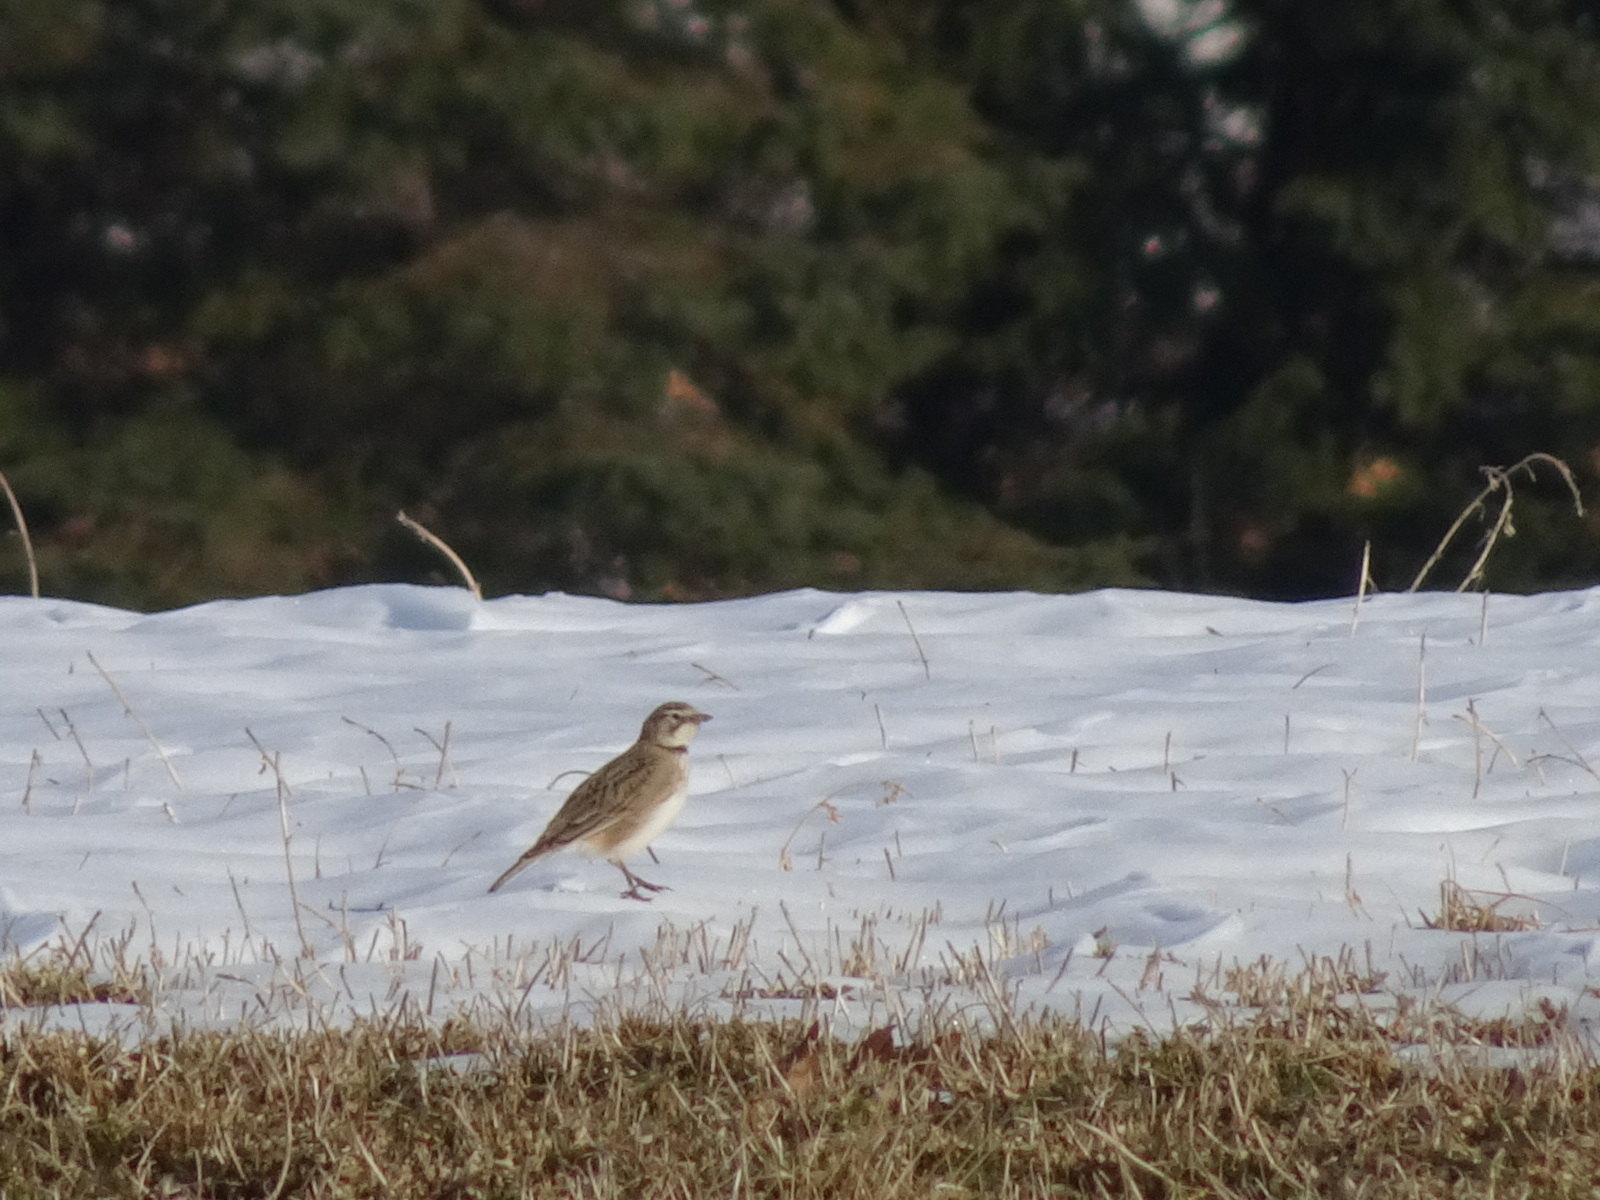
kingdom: Animalia
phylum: Chordata
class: Aves
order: Passeriformes
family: Alaudidae
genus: Eremophila
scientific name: Eremophila alpestris
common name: Horned lark
